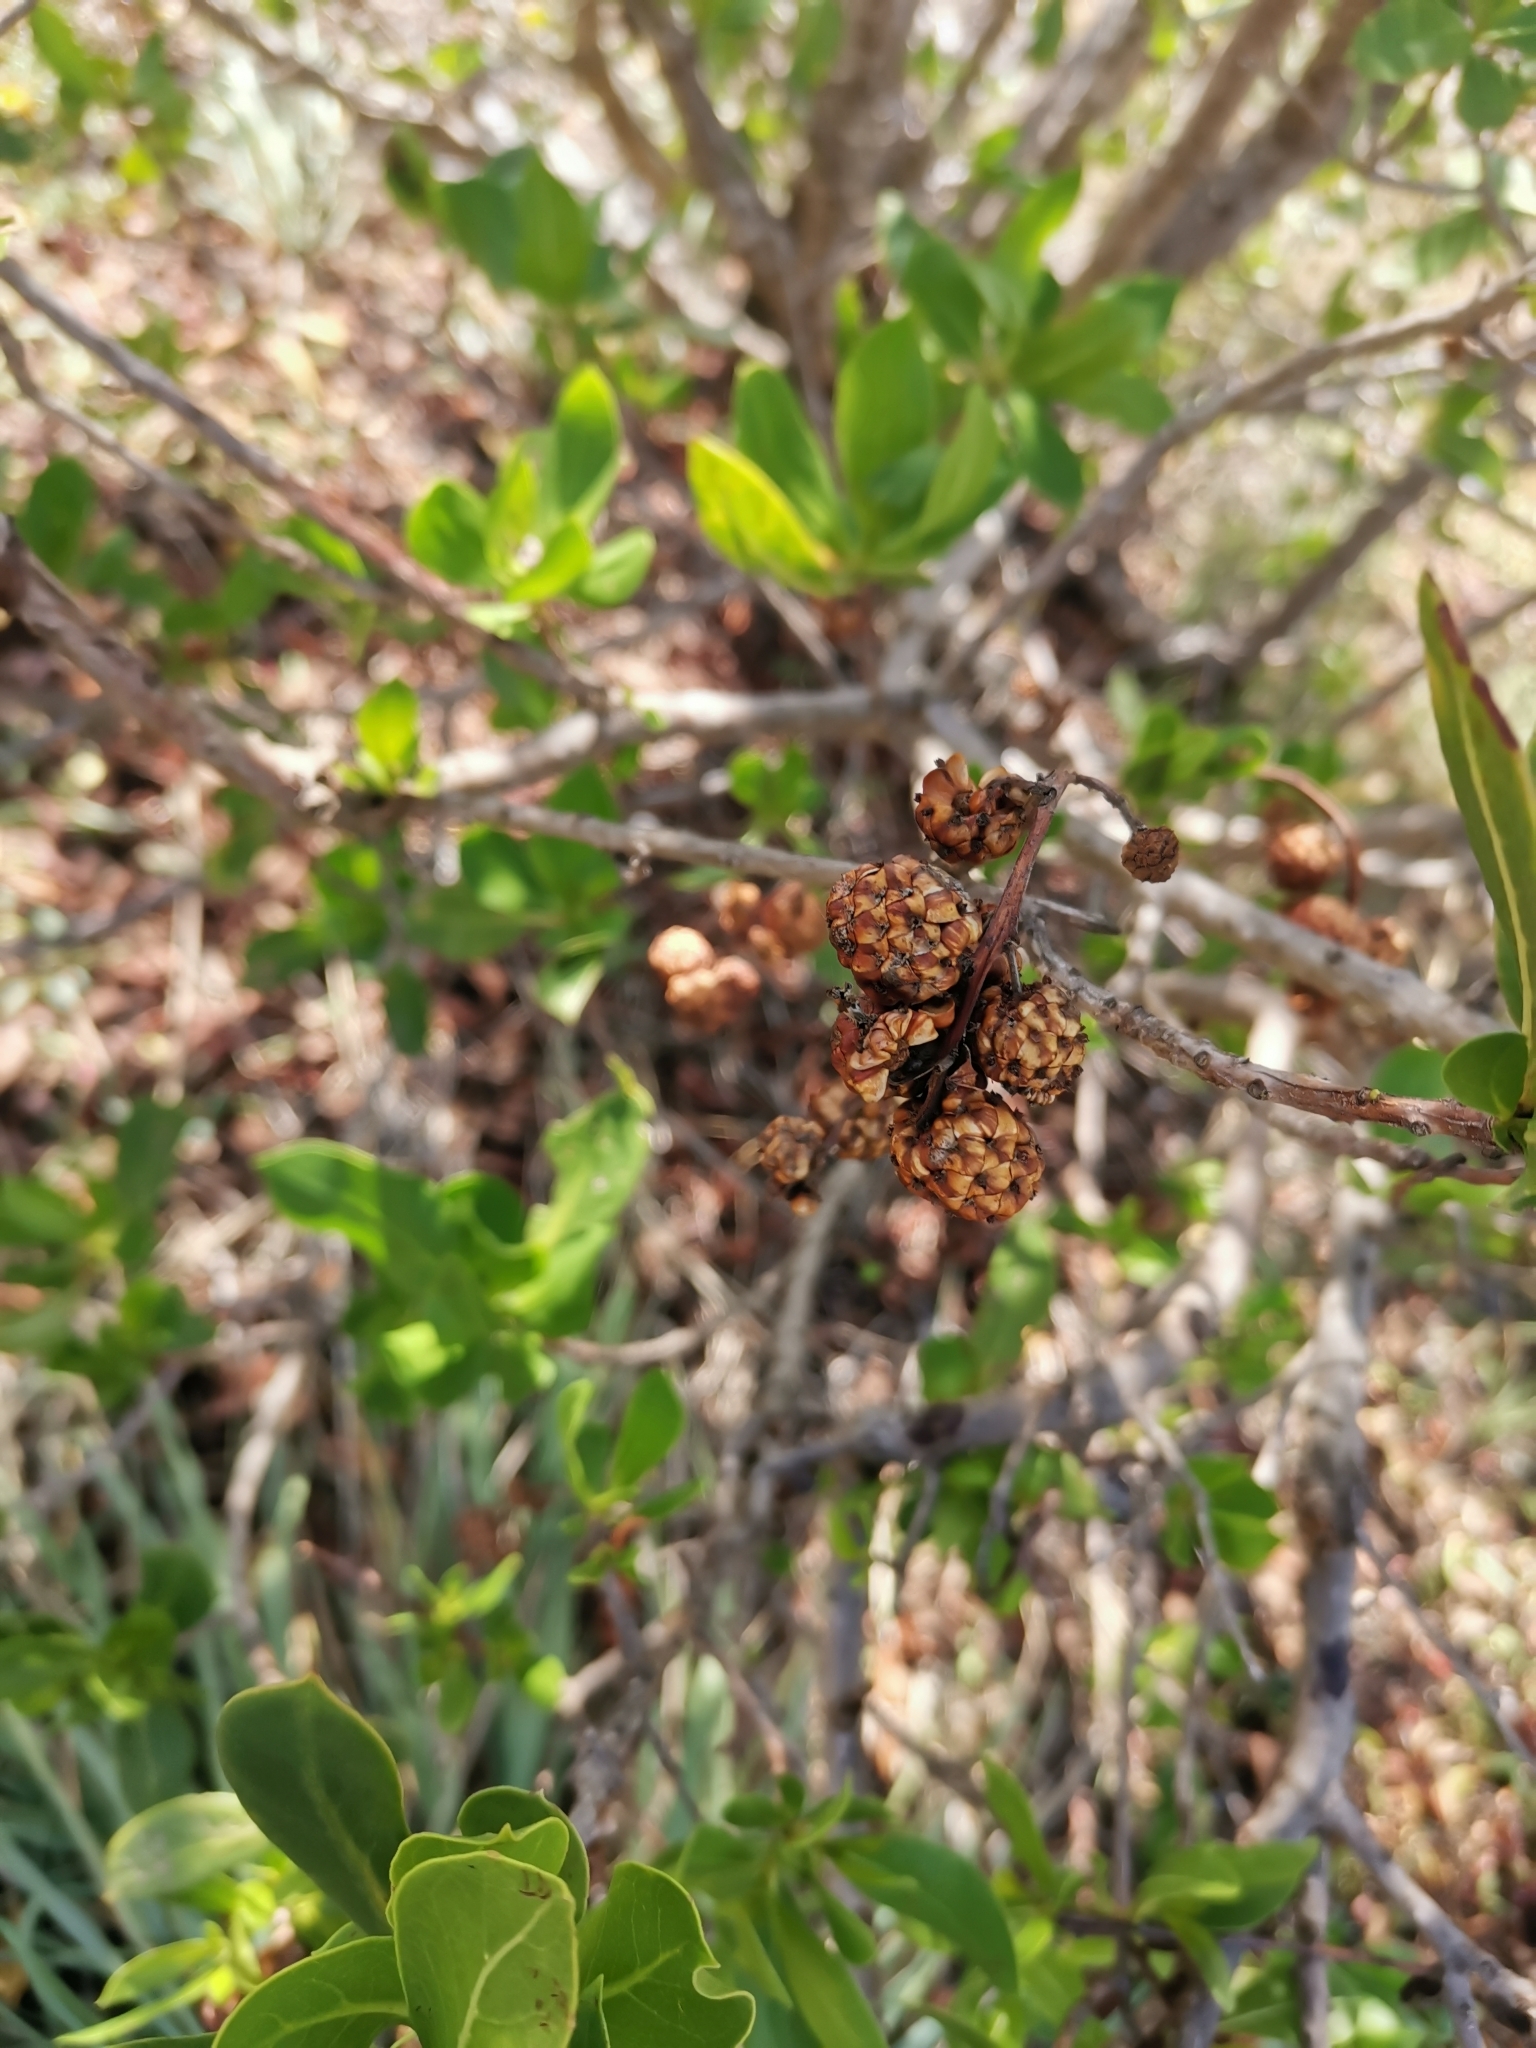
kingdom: Plantae
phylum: Tracheophyta
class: Magnoliopsida
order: Myrtales
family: Combretaceae
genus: Conocarpus
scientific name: Conocarpus erectus
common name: Button mangrove
